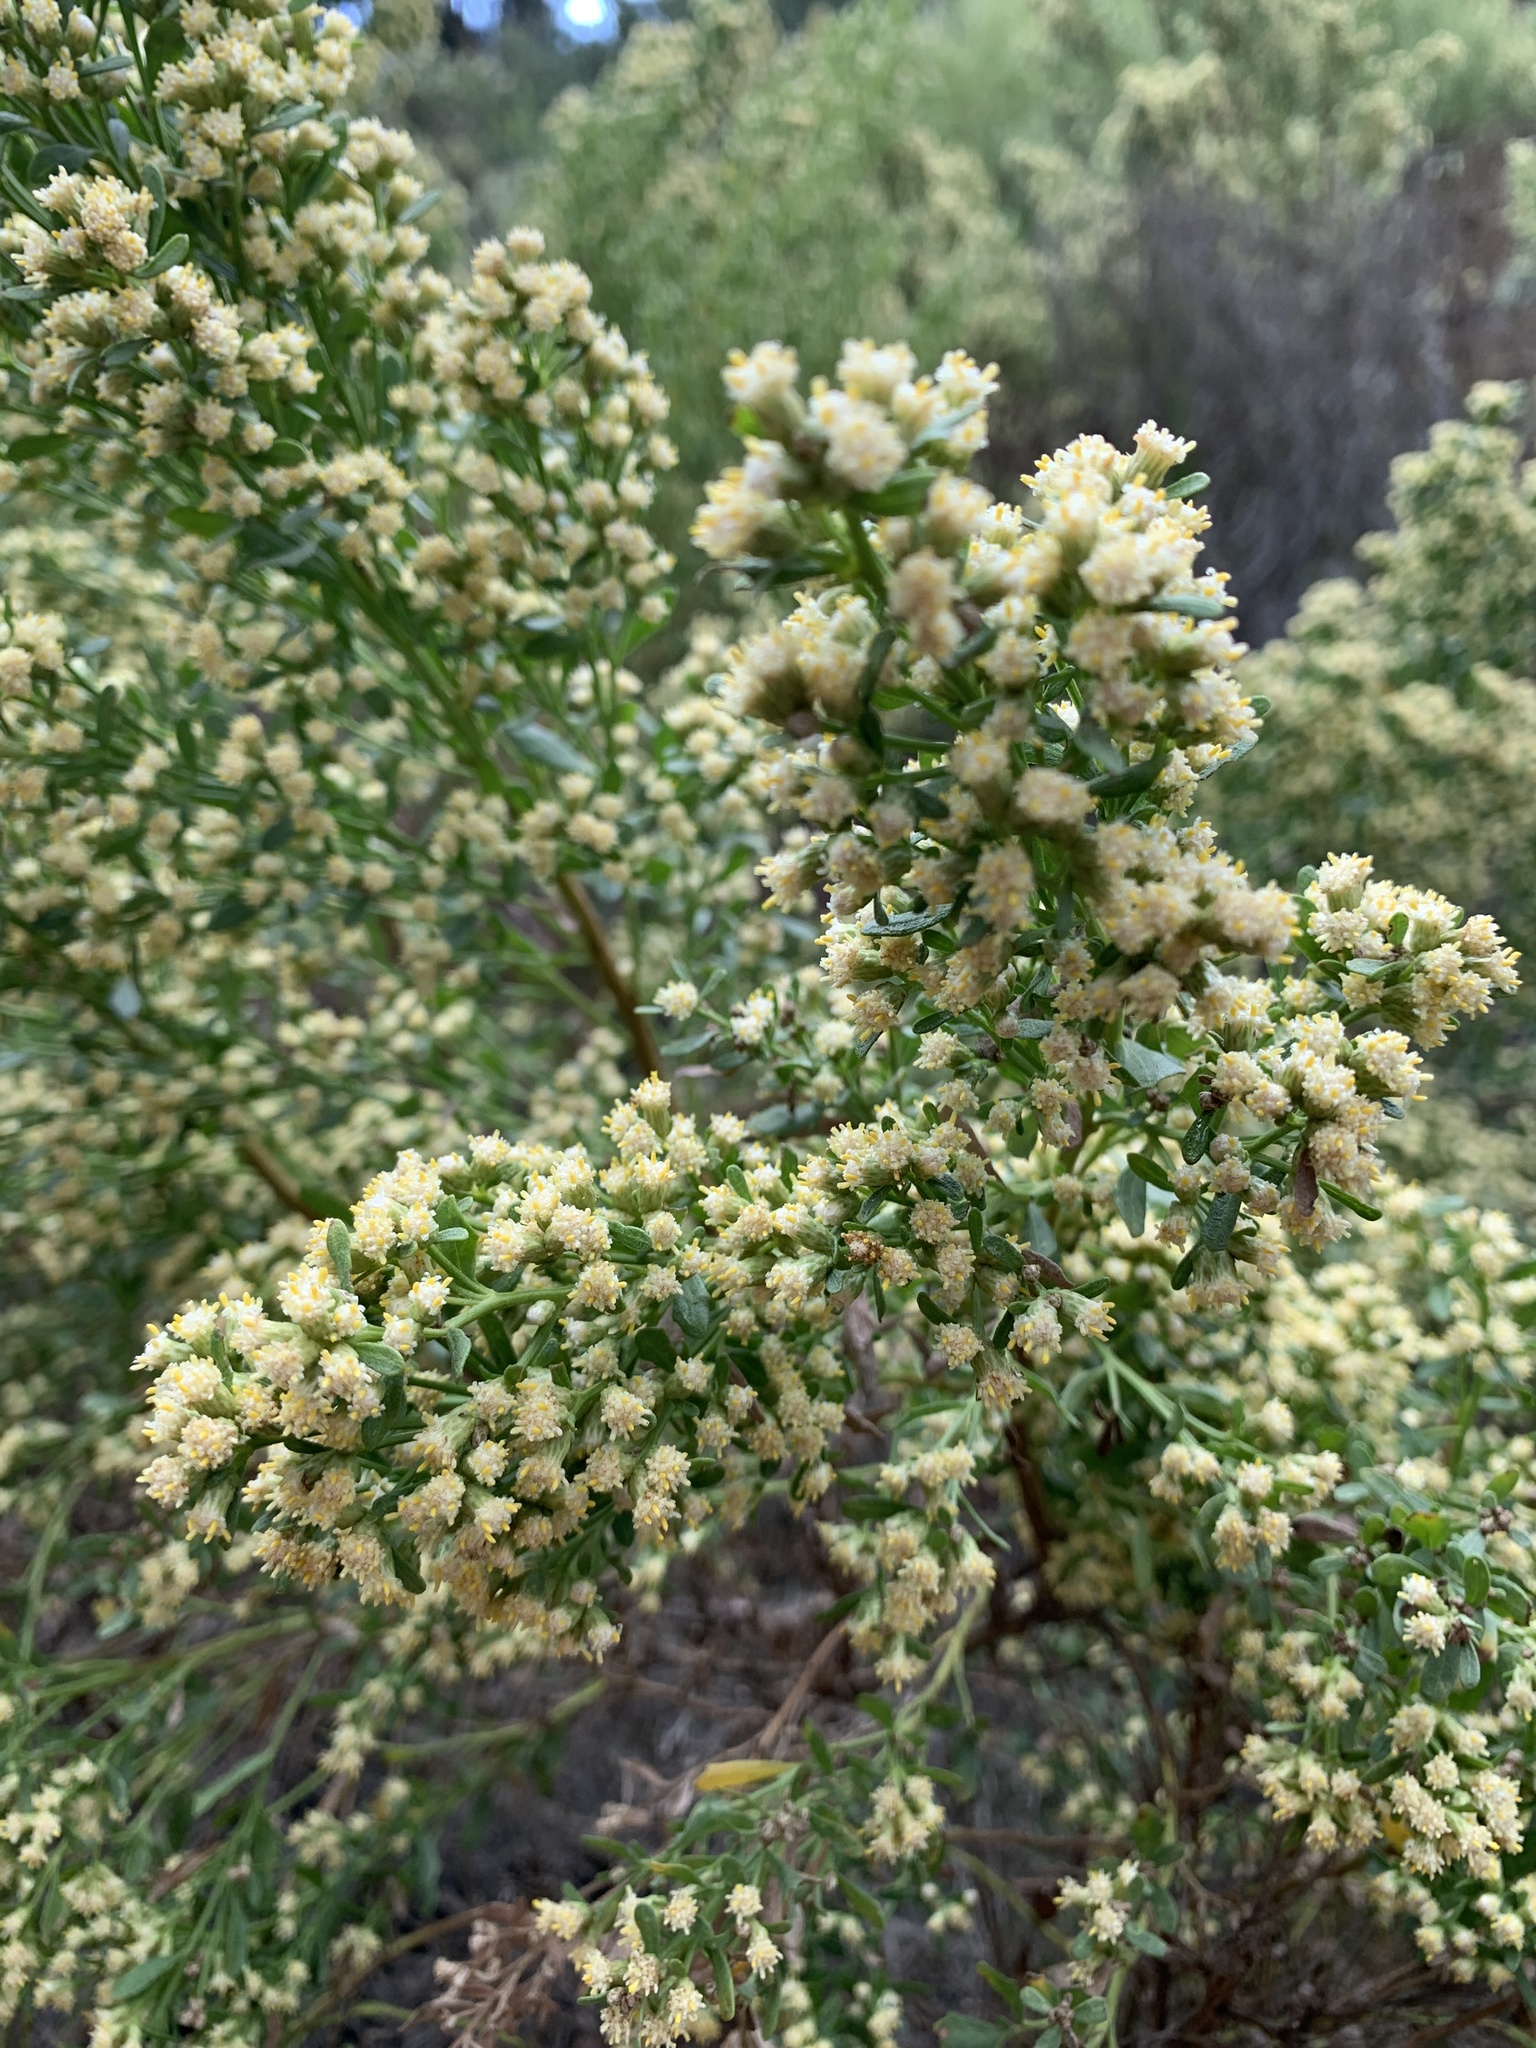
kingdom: Plantae
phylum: Tracheophyta
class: Magnoliopsida
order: Asterales
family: Asteraceae
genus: Baccharis
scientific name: Baccharis pilularis
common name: Coyotebrush
